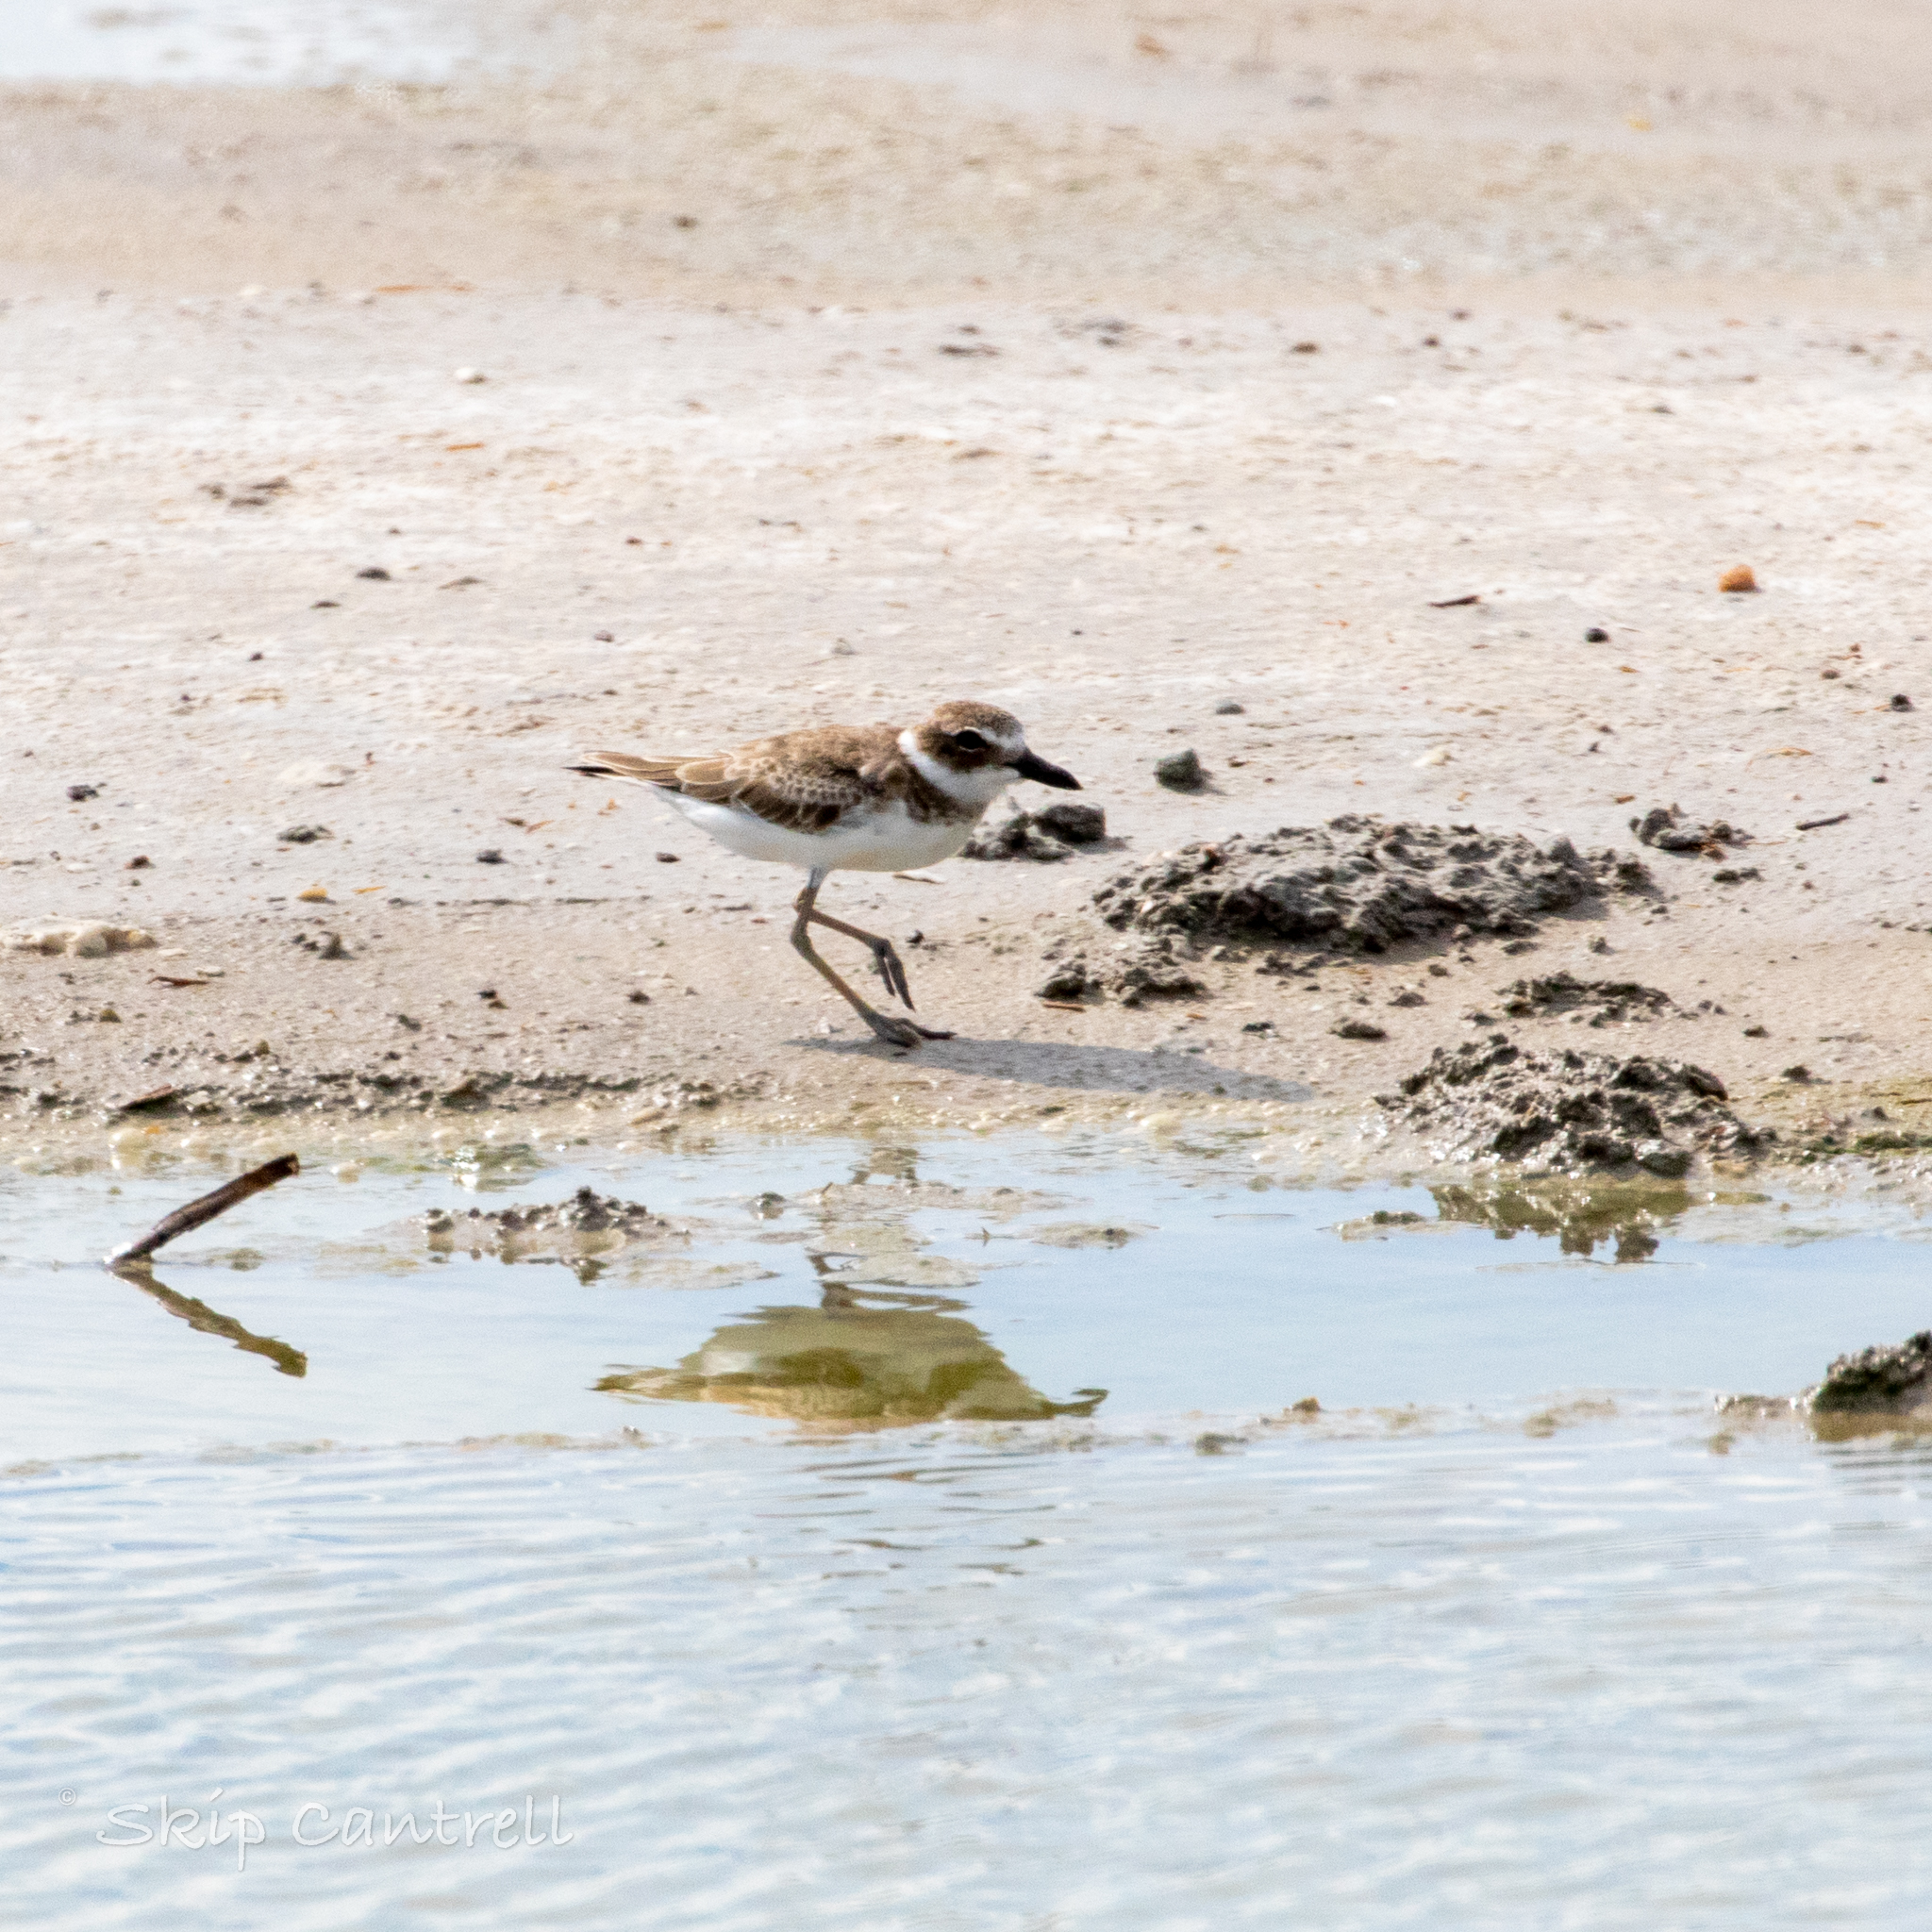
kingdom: Animalia
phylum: Chordata
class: Aves
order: Charadriiformes
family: Charadriidae
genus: Anarhynchus
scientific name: Anarhynchus
